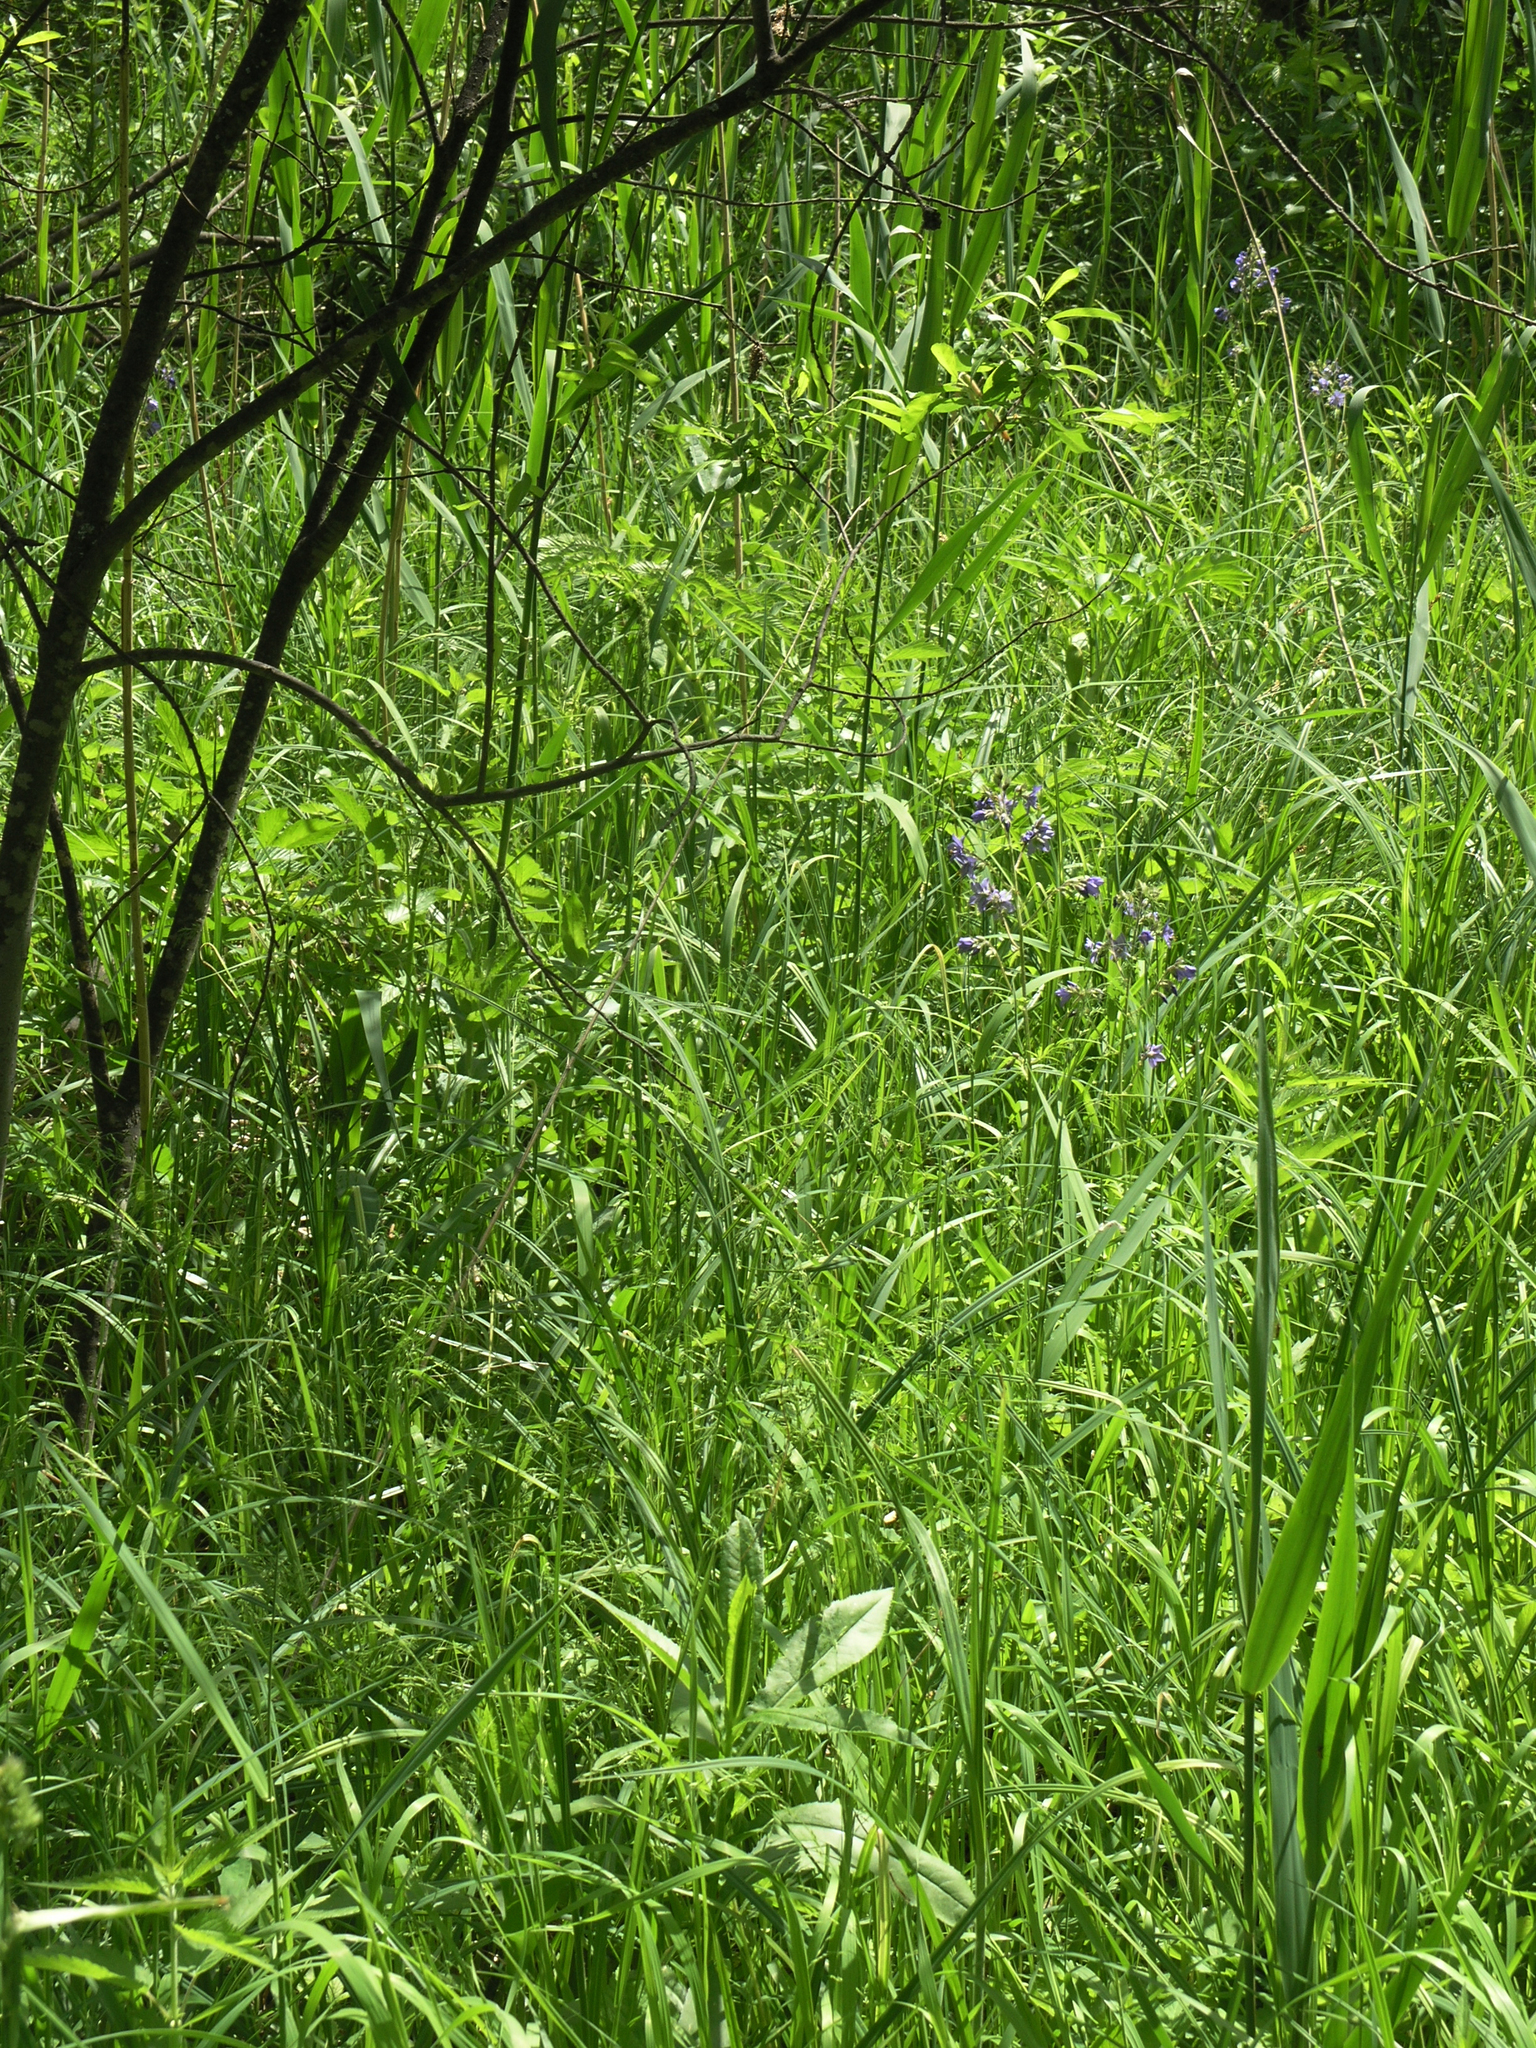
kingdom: Plantae
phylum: Tracheophyta
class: Magnoliopsida
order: Ericales
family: Polemoniaceae
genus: Polemonium
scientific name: Polemonium caeruleum
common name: Jacob's-ladder
